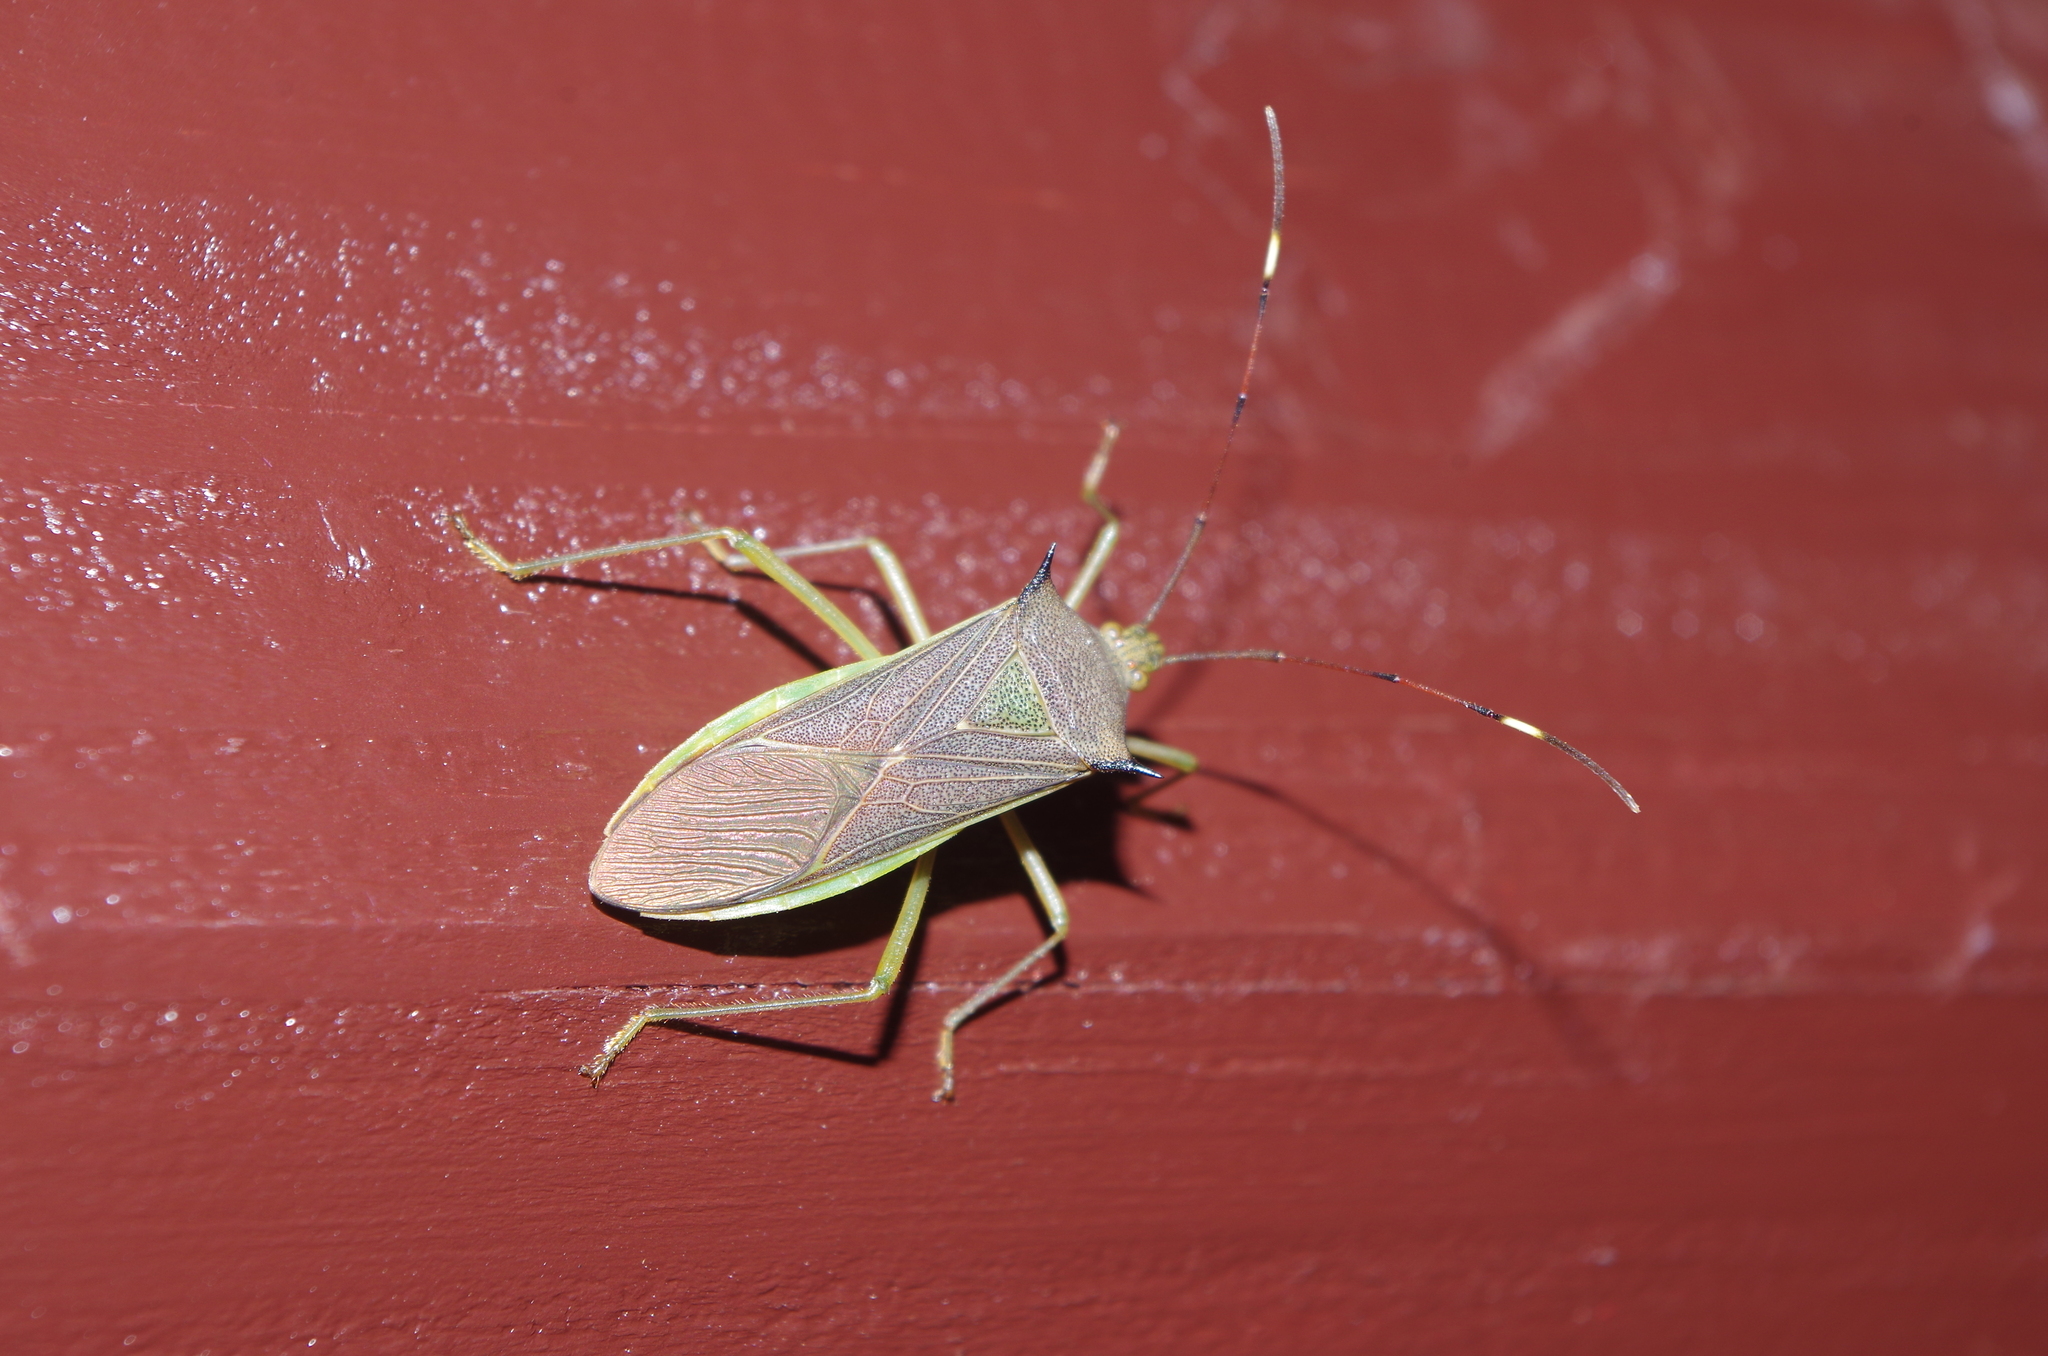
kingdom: Animalia
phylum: Arthropoda
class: Insecta
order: Hemiptera
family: Coreidae
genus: Paradasynus
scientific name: Paradasynus spinosus
